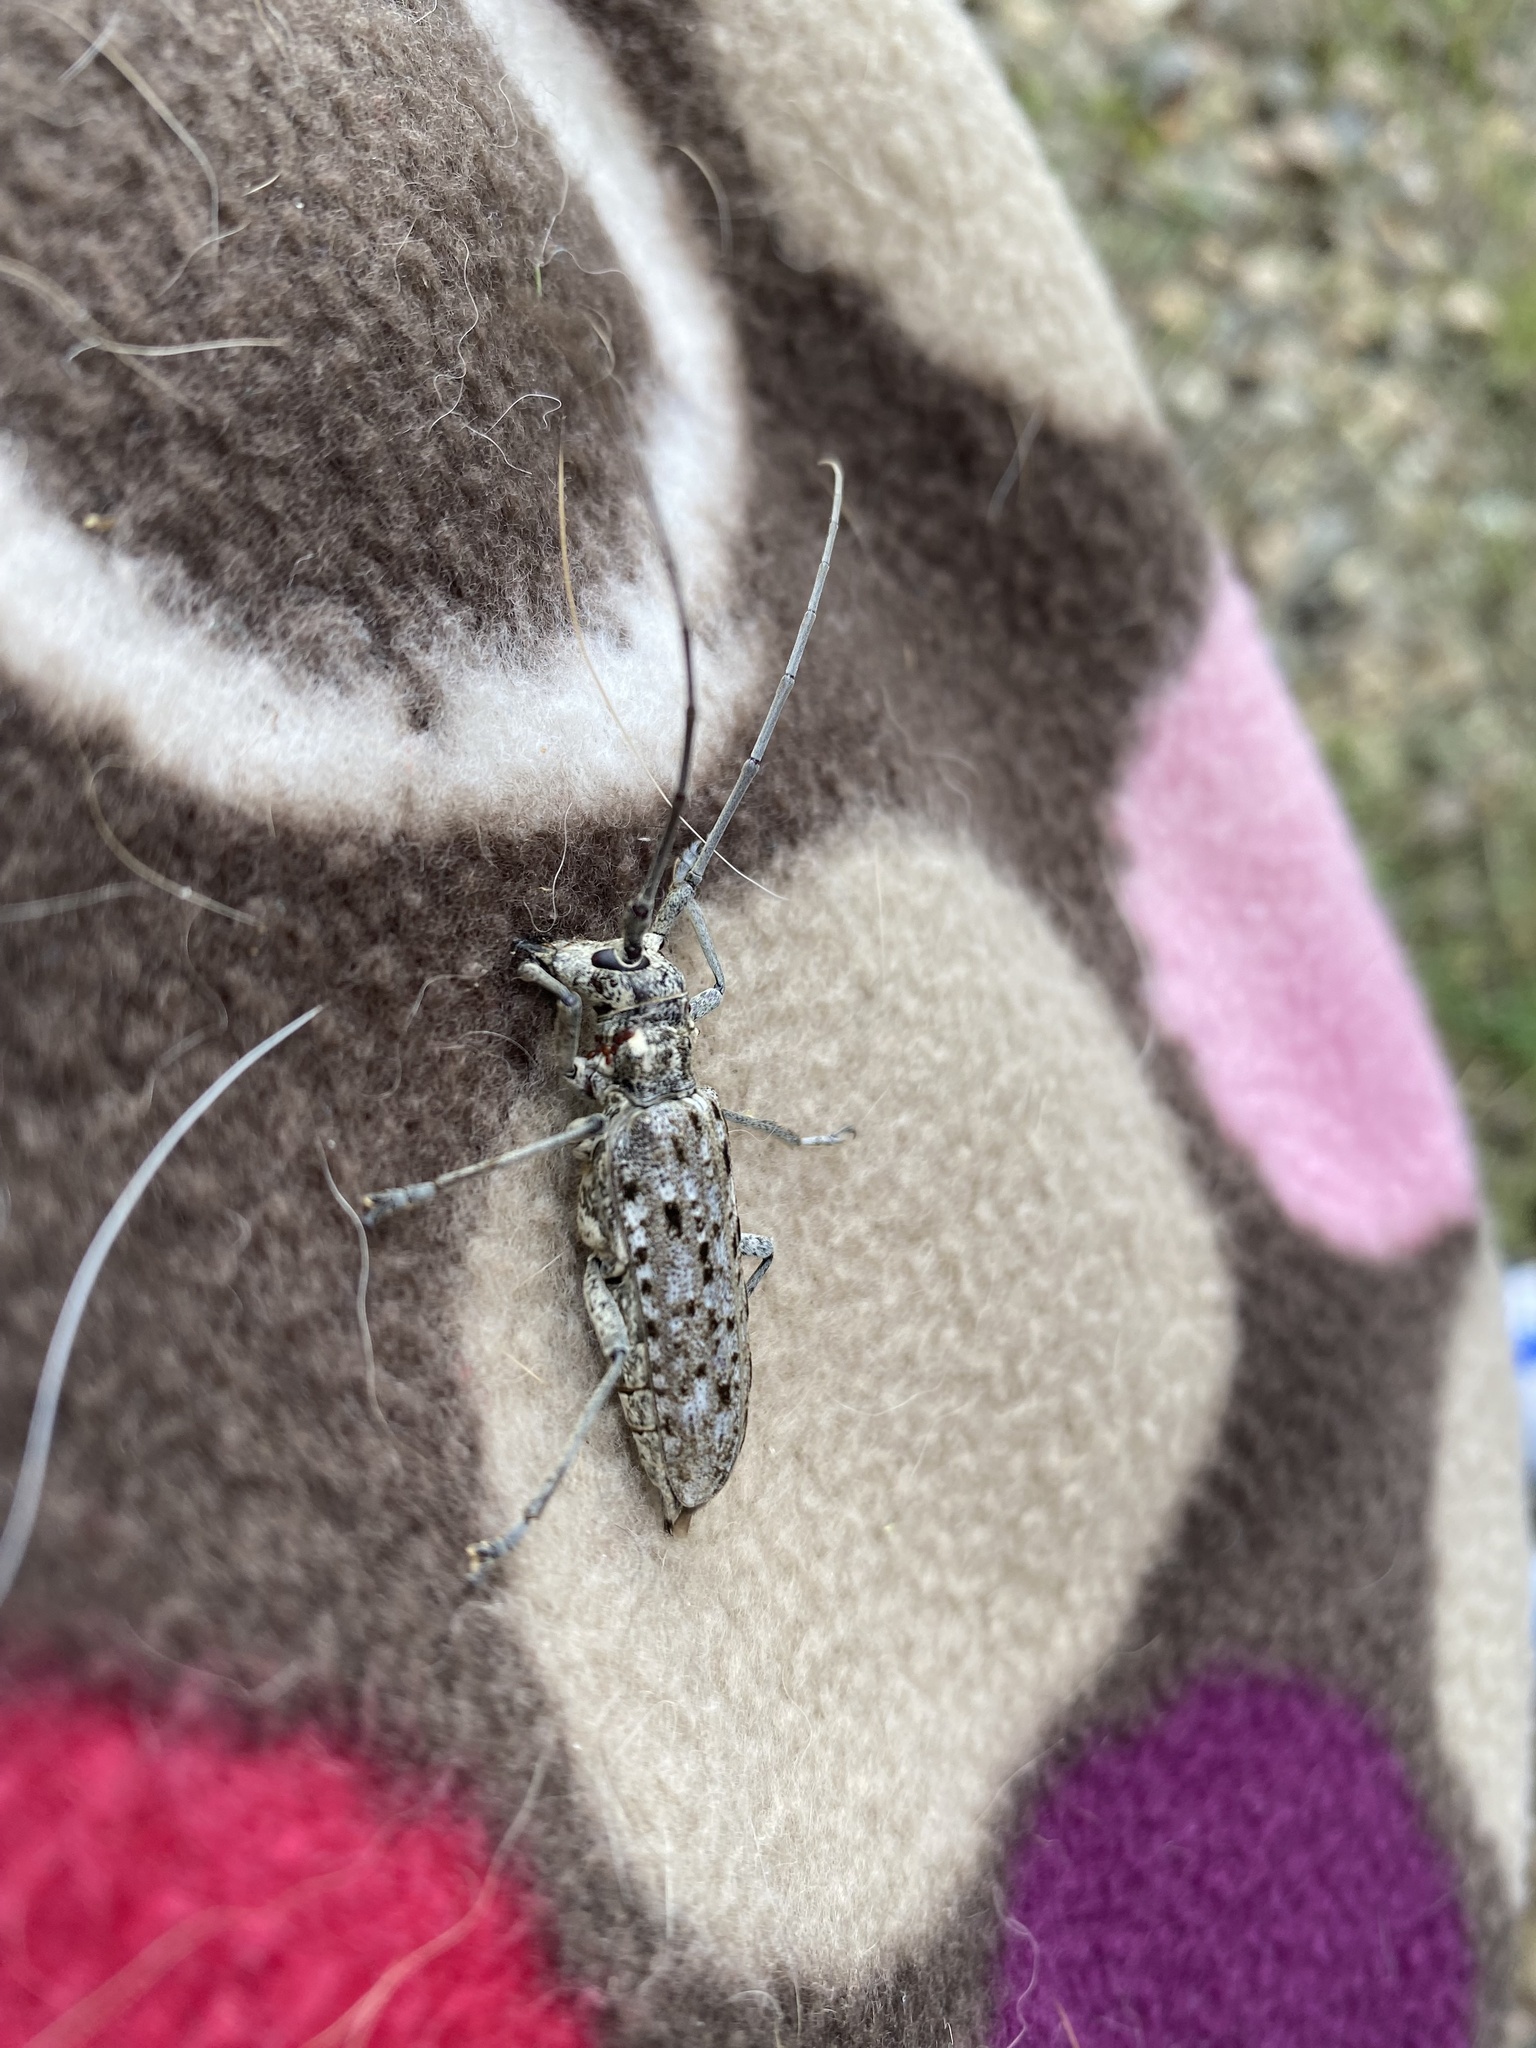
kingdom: Animalia
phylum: Arthropoda
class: Insecta
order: Coleoptera
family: Cerambycidae
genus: Monochamus
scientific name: Monochamus notatus
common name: Northeastern pine sawyer beetle
